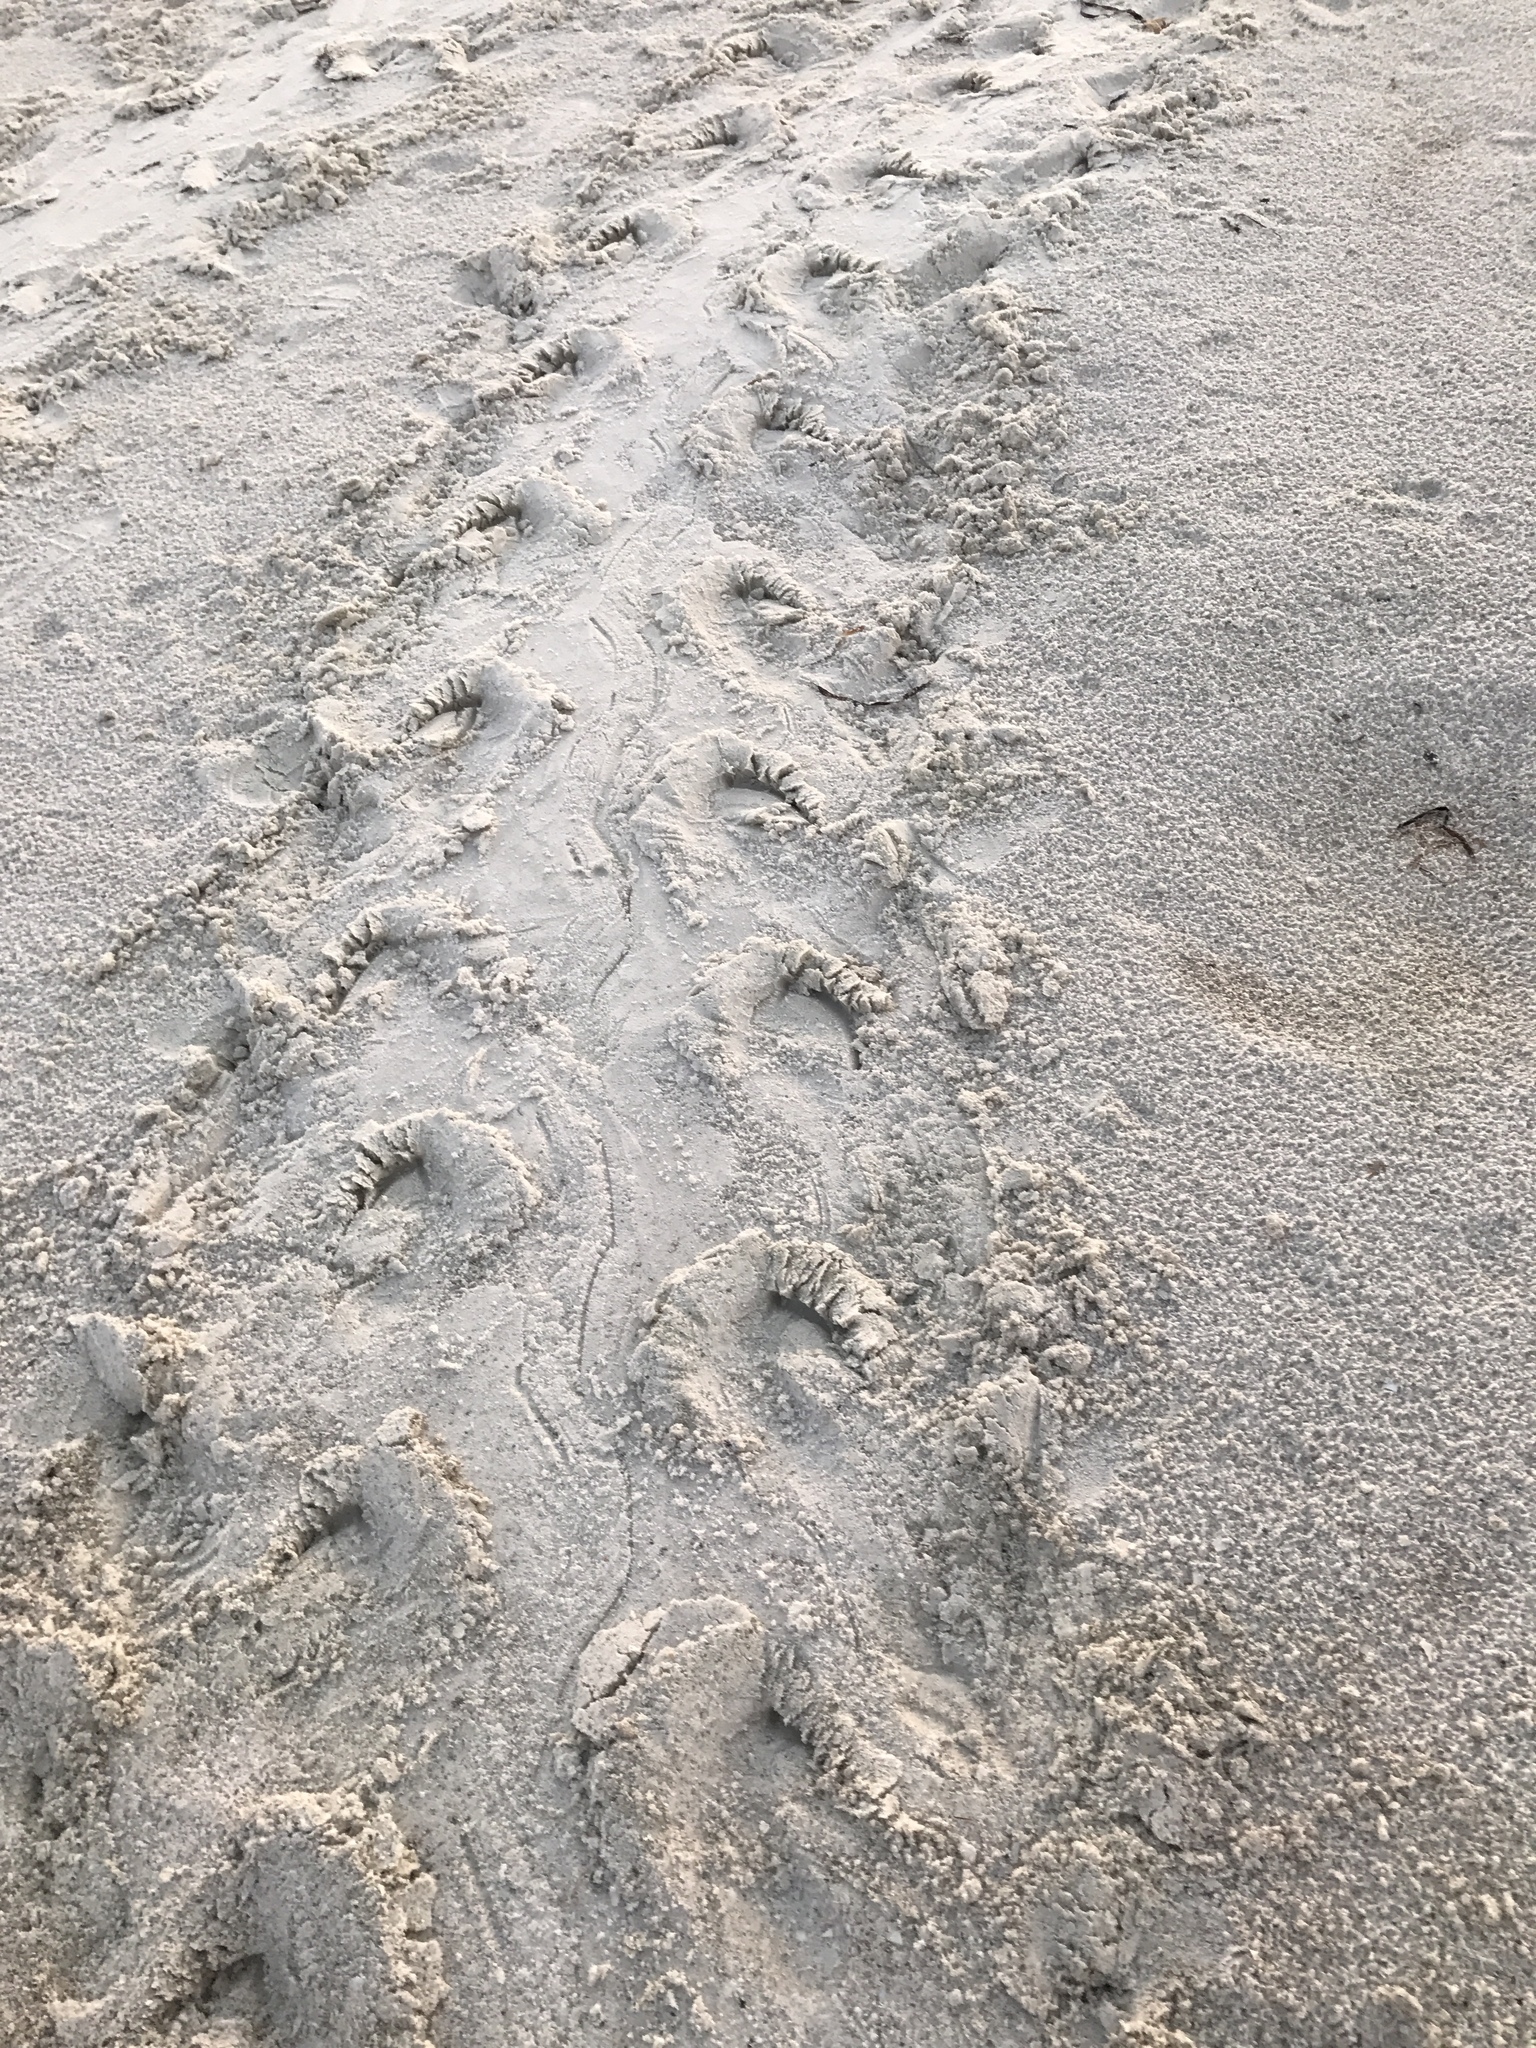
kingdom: Animalia
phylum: Chordata
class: Testudines
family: Cheloniidae
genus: Caretta
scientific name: Caretta caretta
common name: Loggerhead sea turtle
